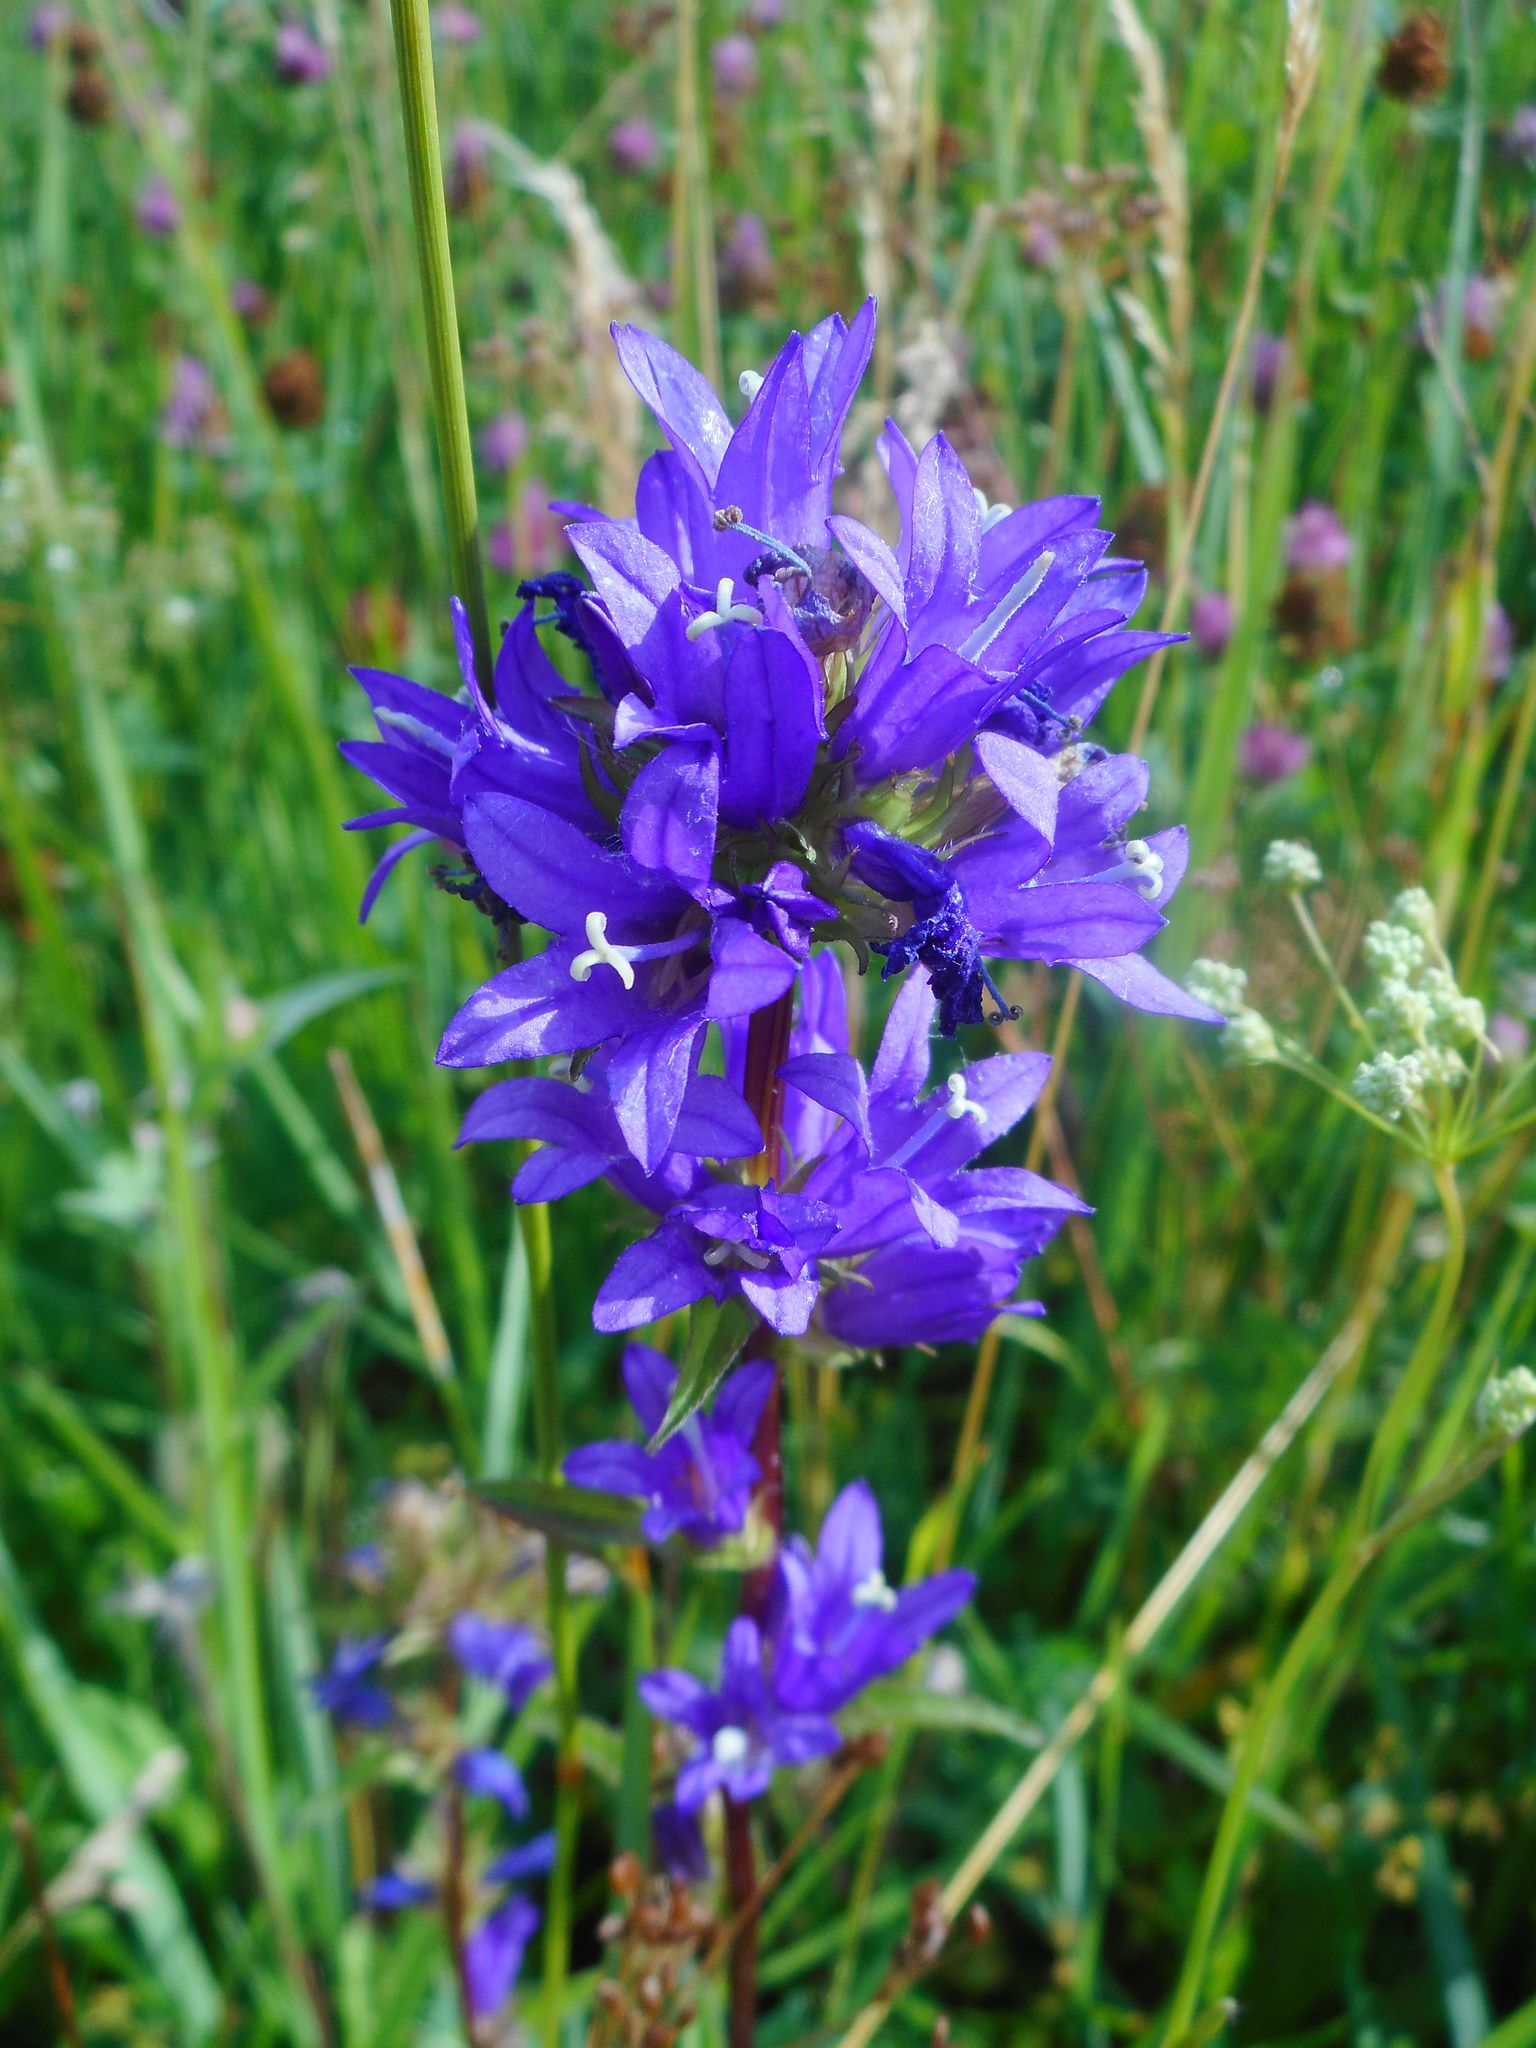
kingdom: Plantae
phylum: Tracheophyta
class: Magnoliopsida
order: Asterales
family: Campanulaceae
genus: Campanula
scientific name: Campanula glomerata
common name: Clustered bellflower
